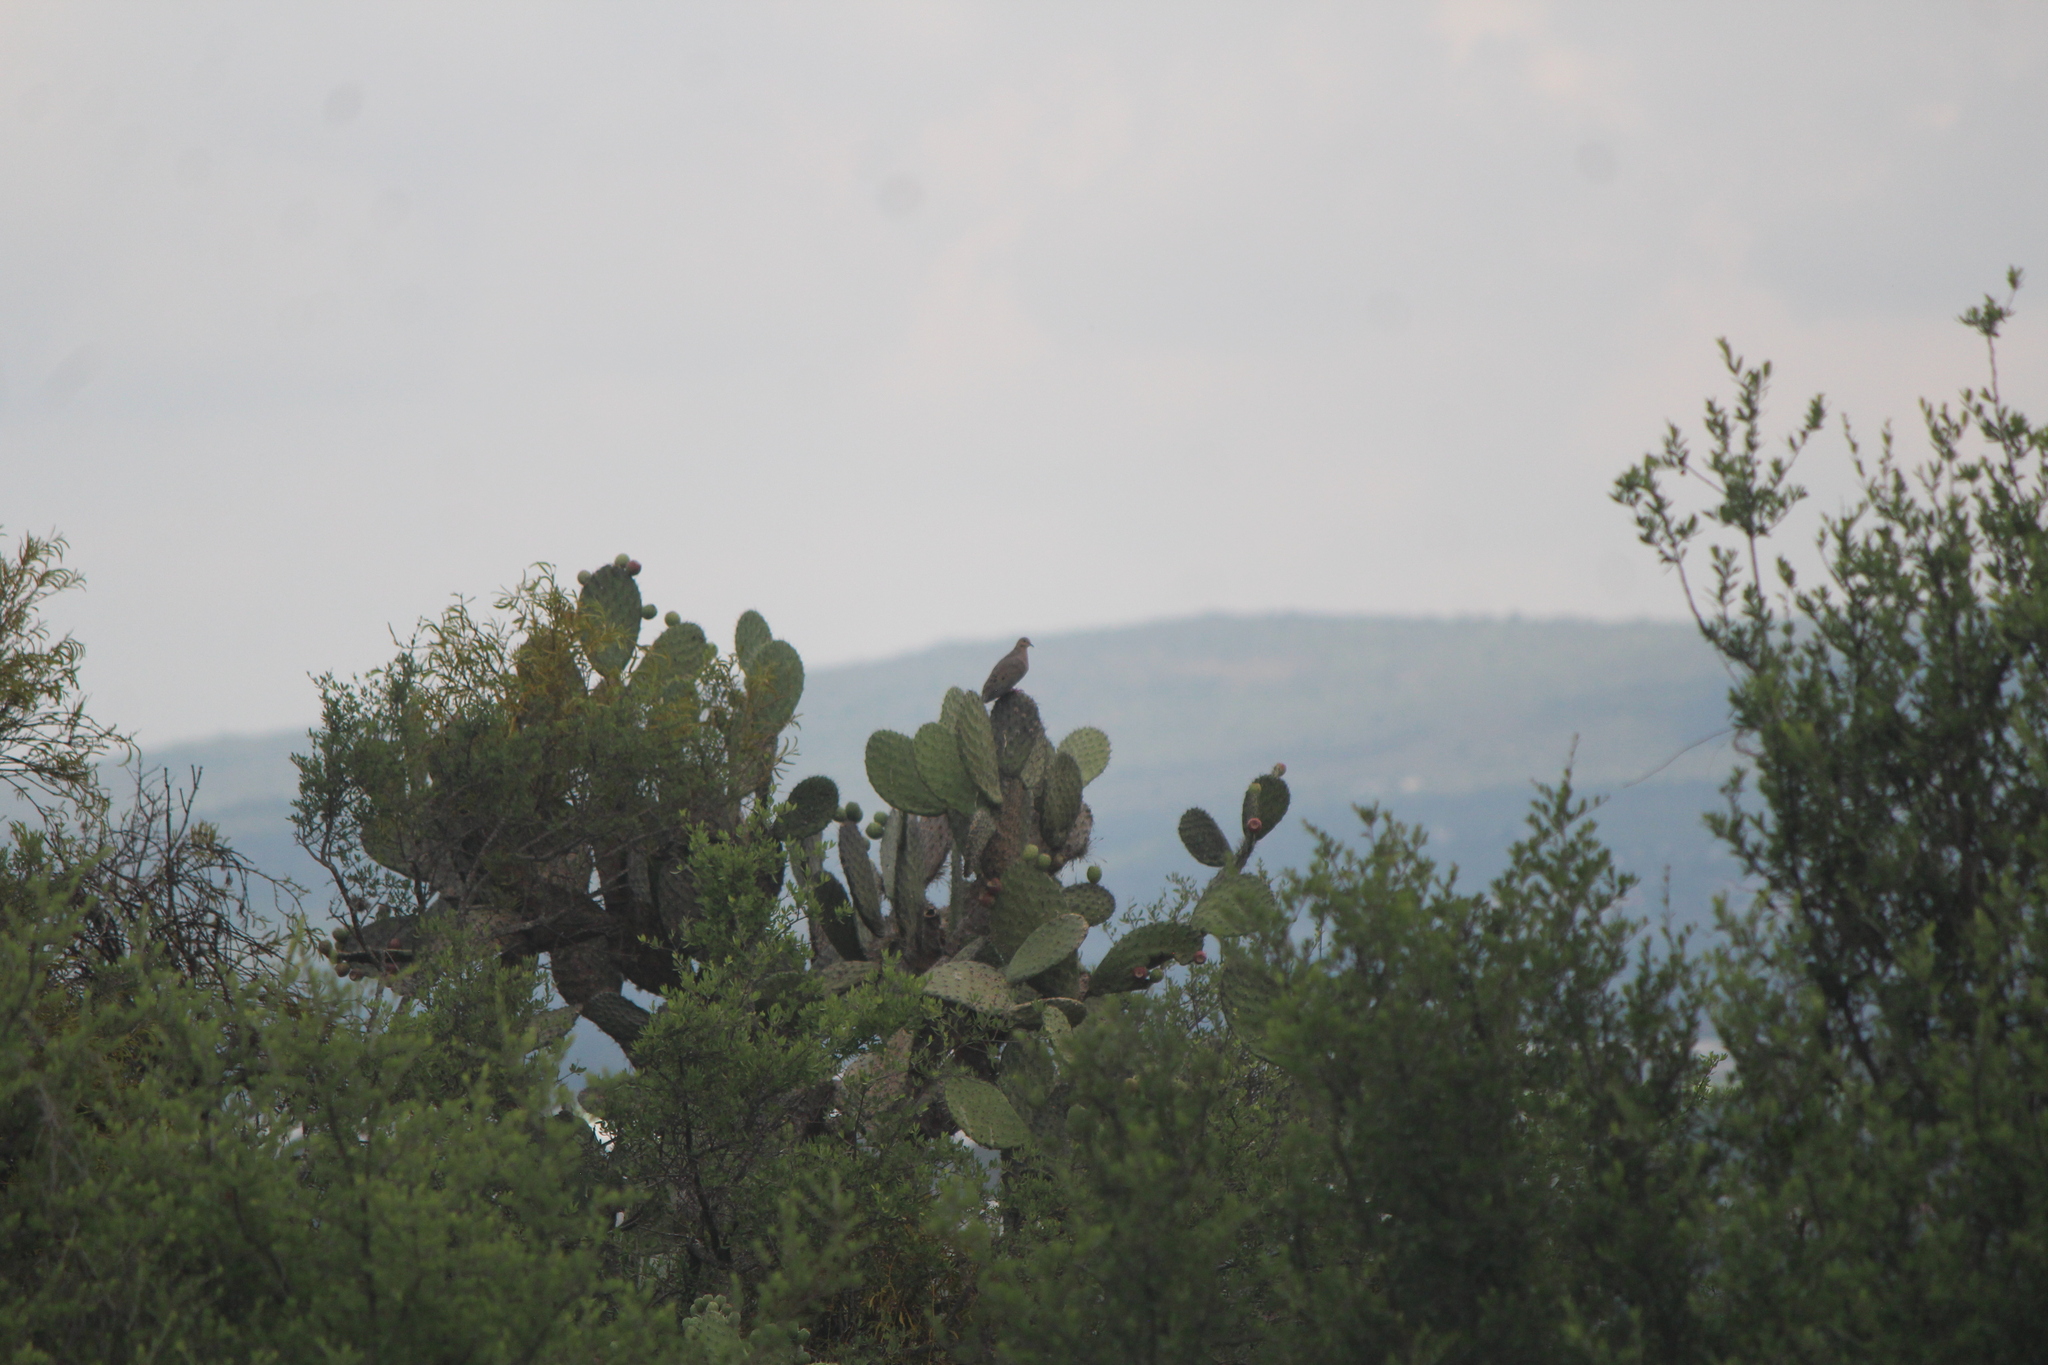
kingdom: Animalia
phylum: Chordata
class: Aves
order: Columbiformes
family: Columbidae
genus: Zenaida
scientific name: Zenaida macroura
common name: Mourning dove
